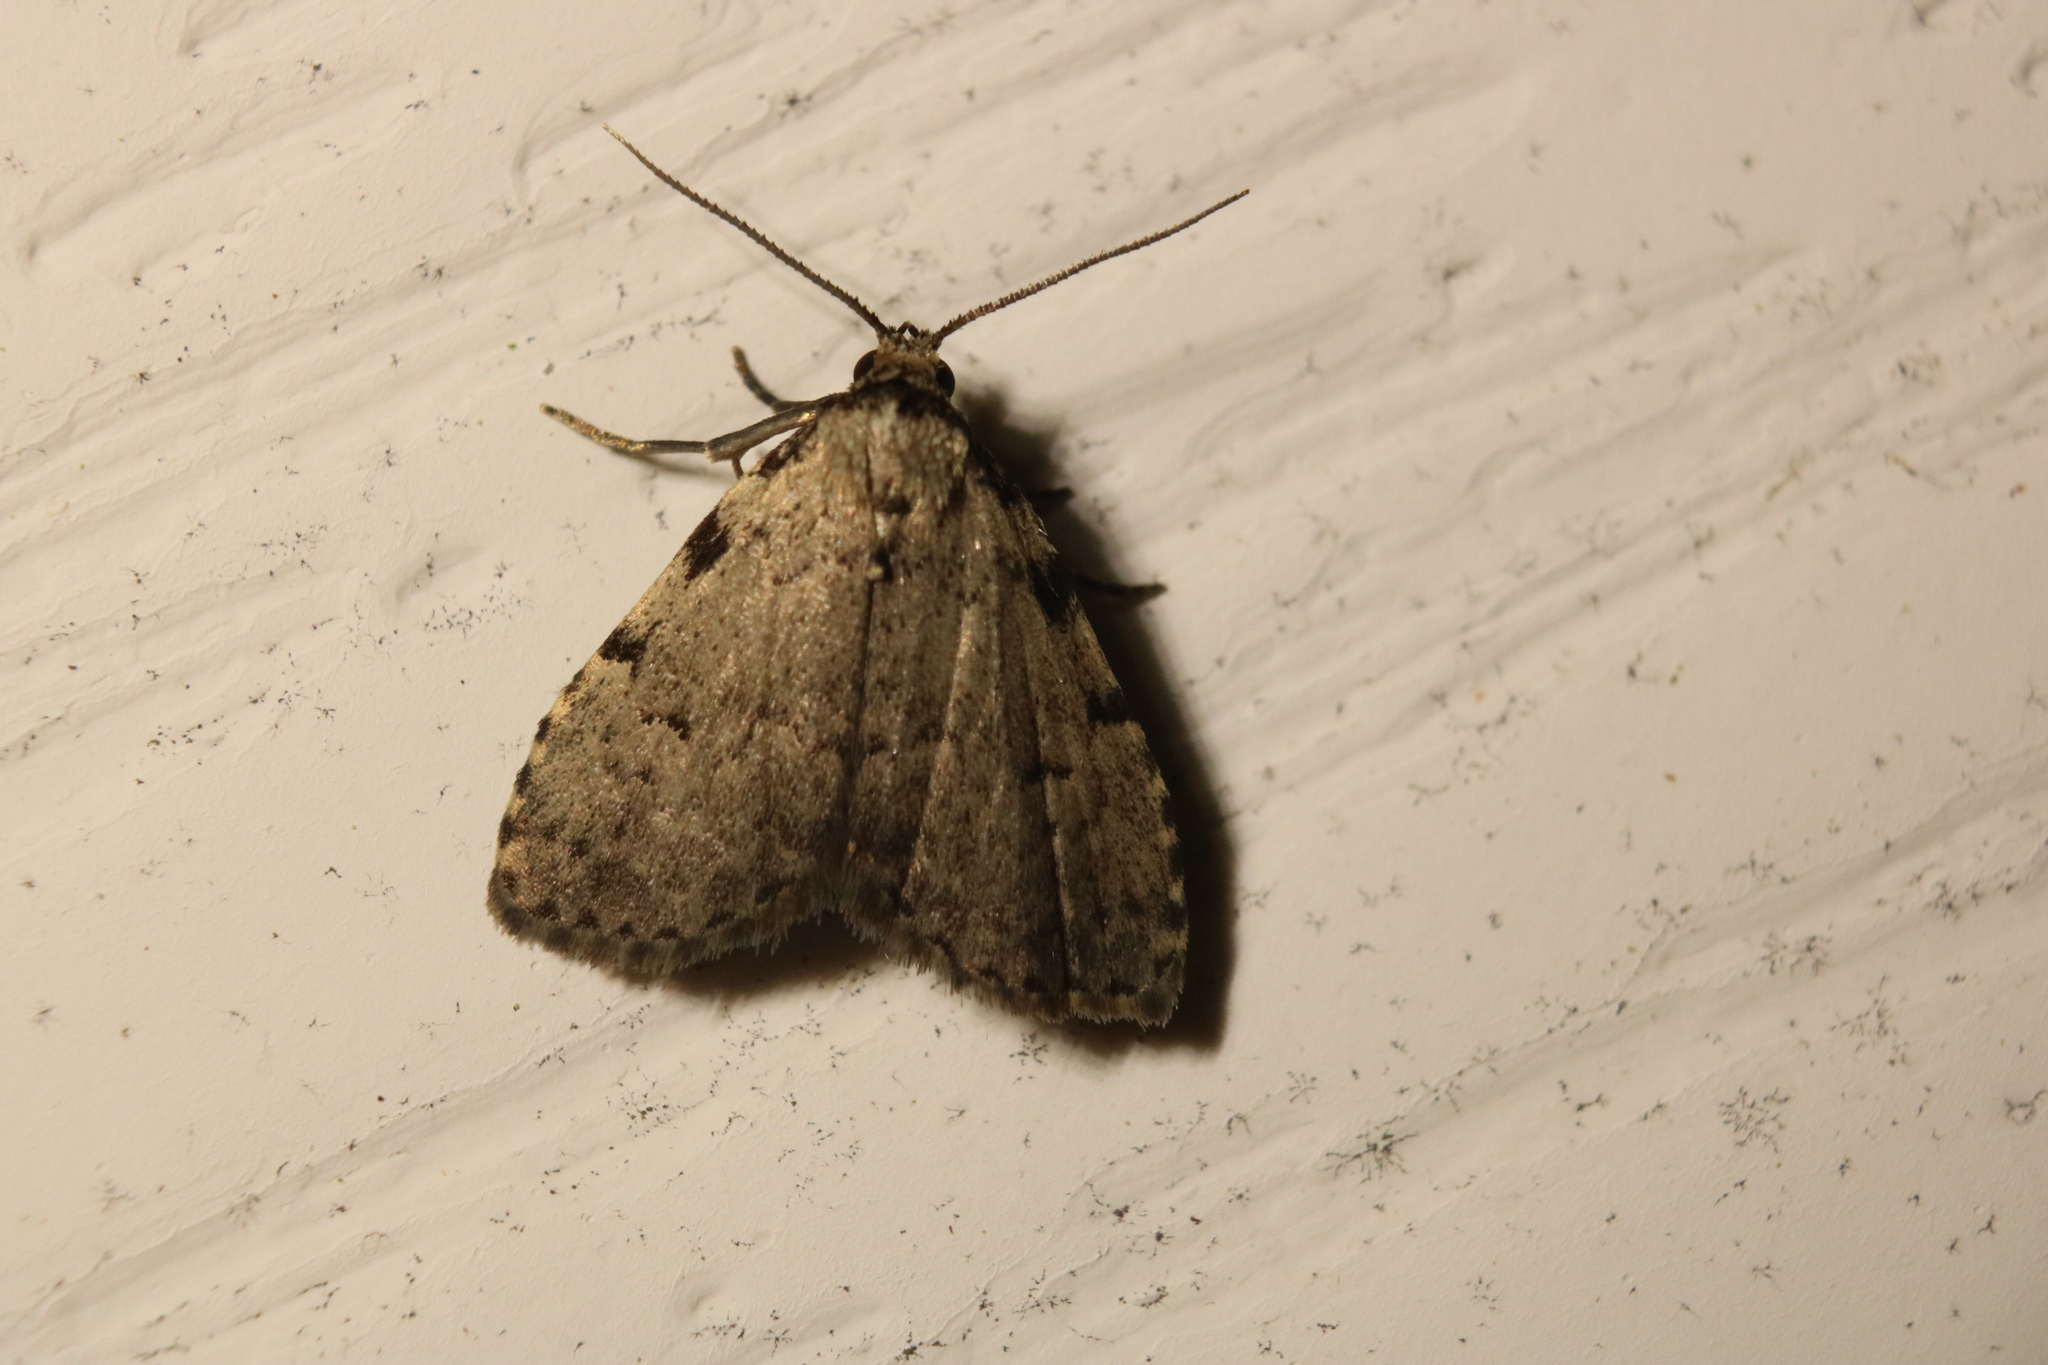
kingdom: Animalia
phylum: Arthropoda
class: Insecta
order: Lepidoptera
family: Erebidae
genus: Dyspyralis
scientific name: Dyspyralis puncticosta
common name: Spot-edged dyspyralis moth
